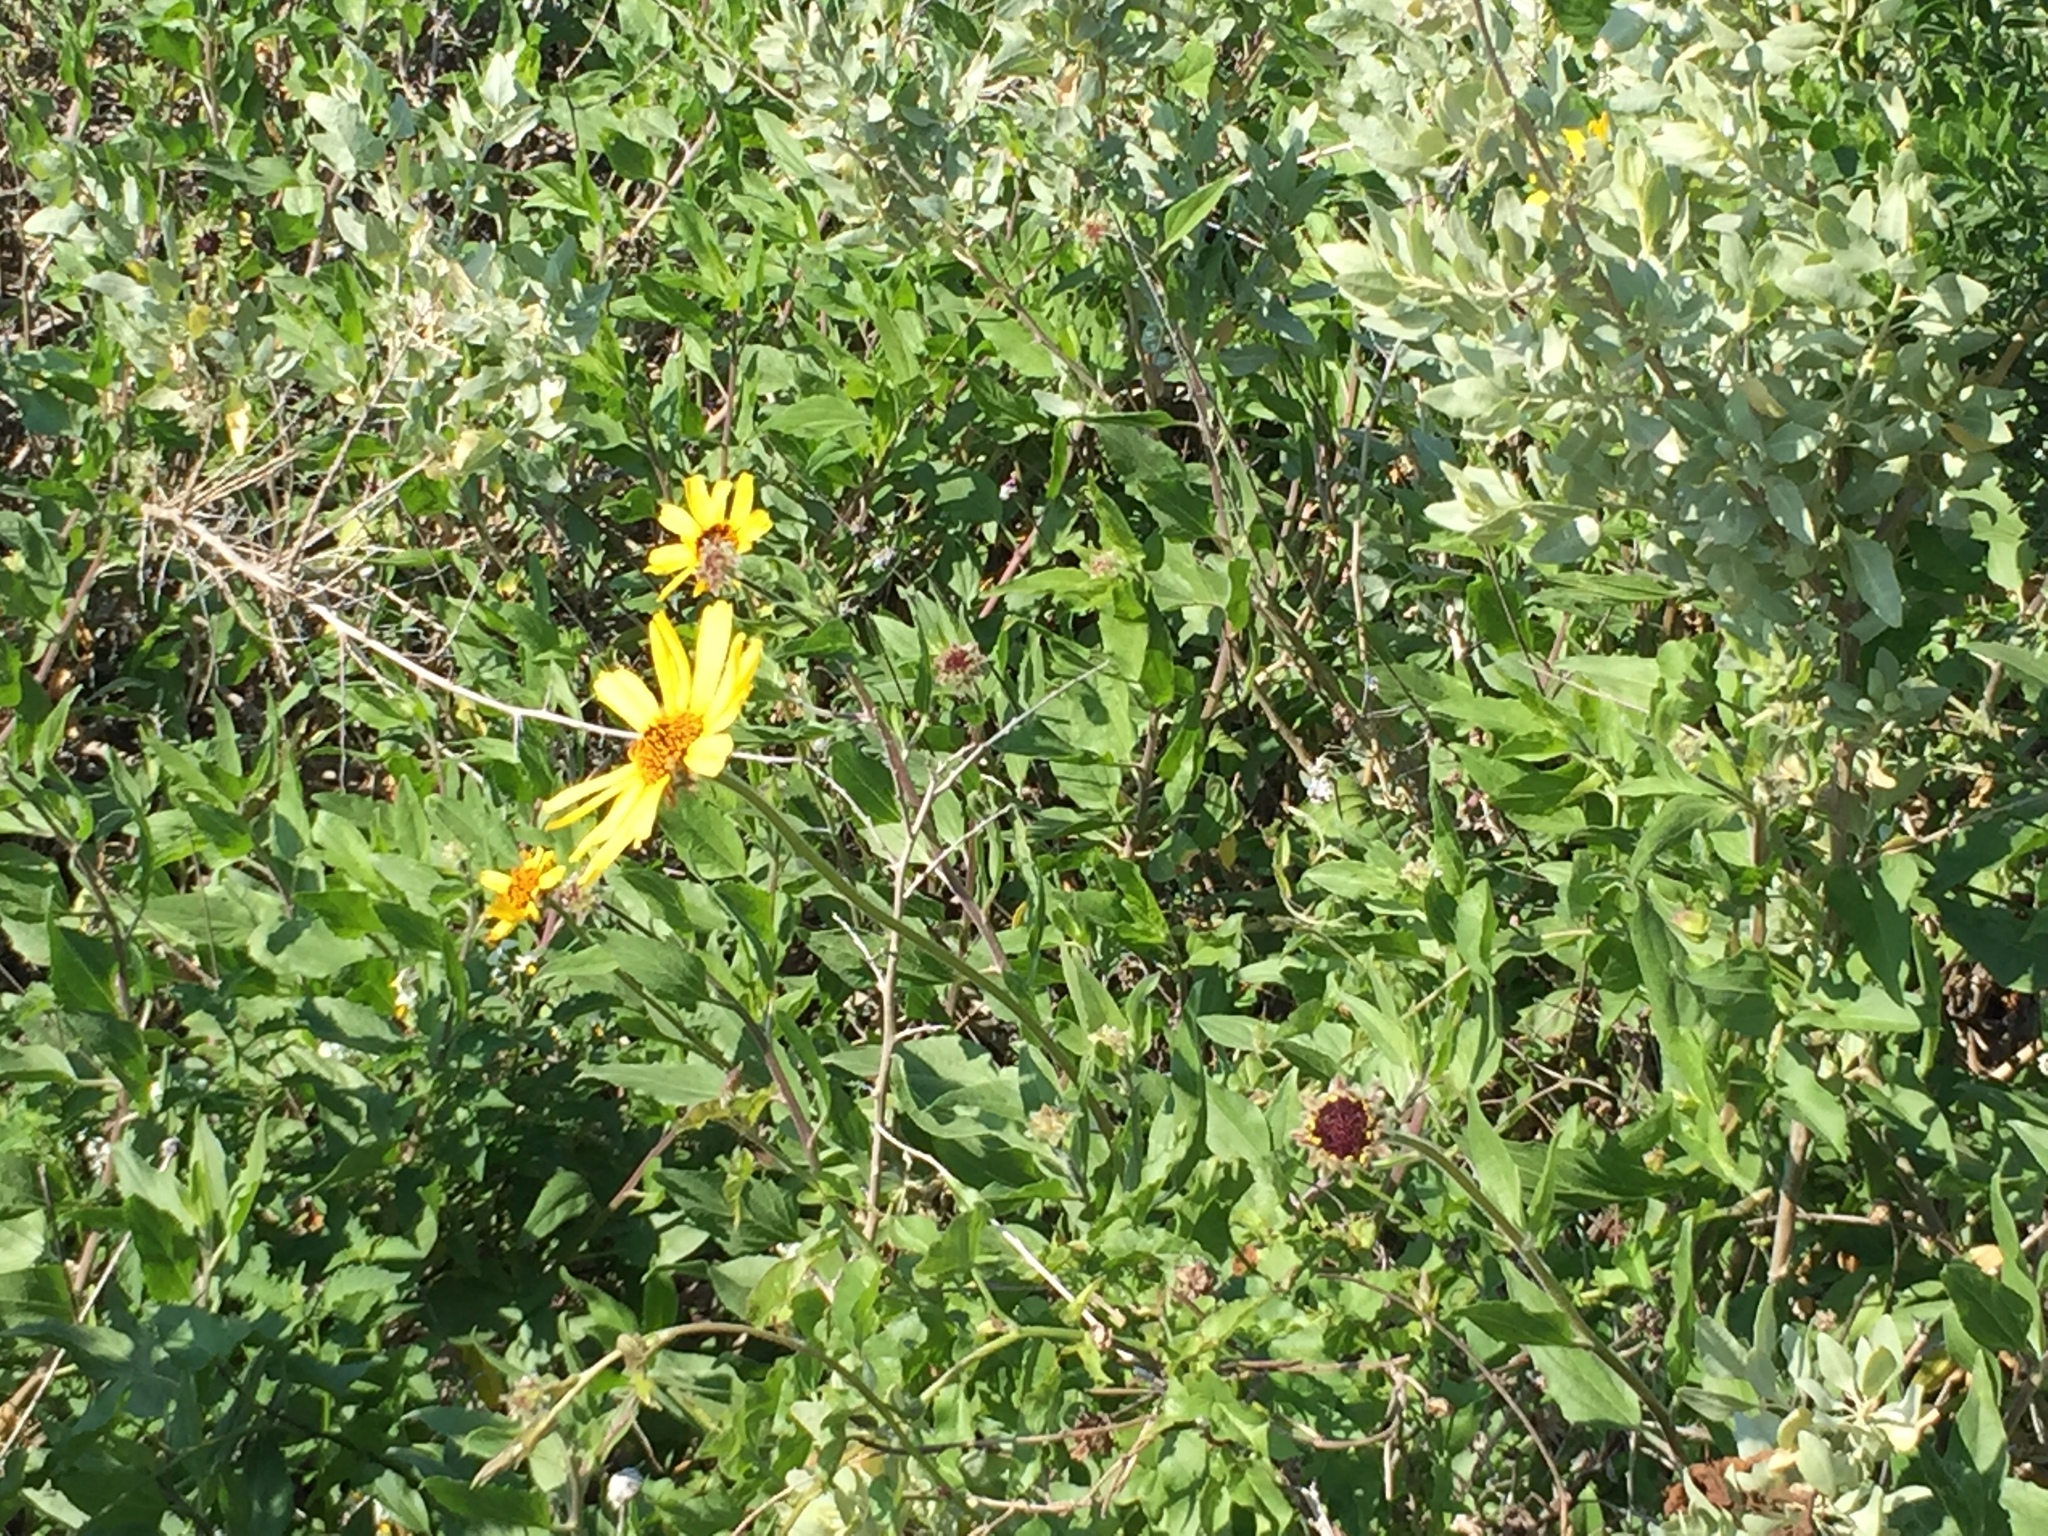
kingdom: Plantae
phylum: Tracheophyta
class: Magnoliopsida
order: Asterales
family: Asteraceae
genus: Encelia
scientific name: Encelia californica
